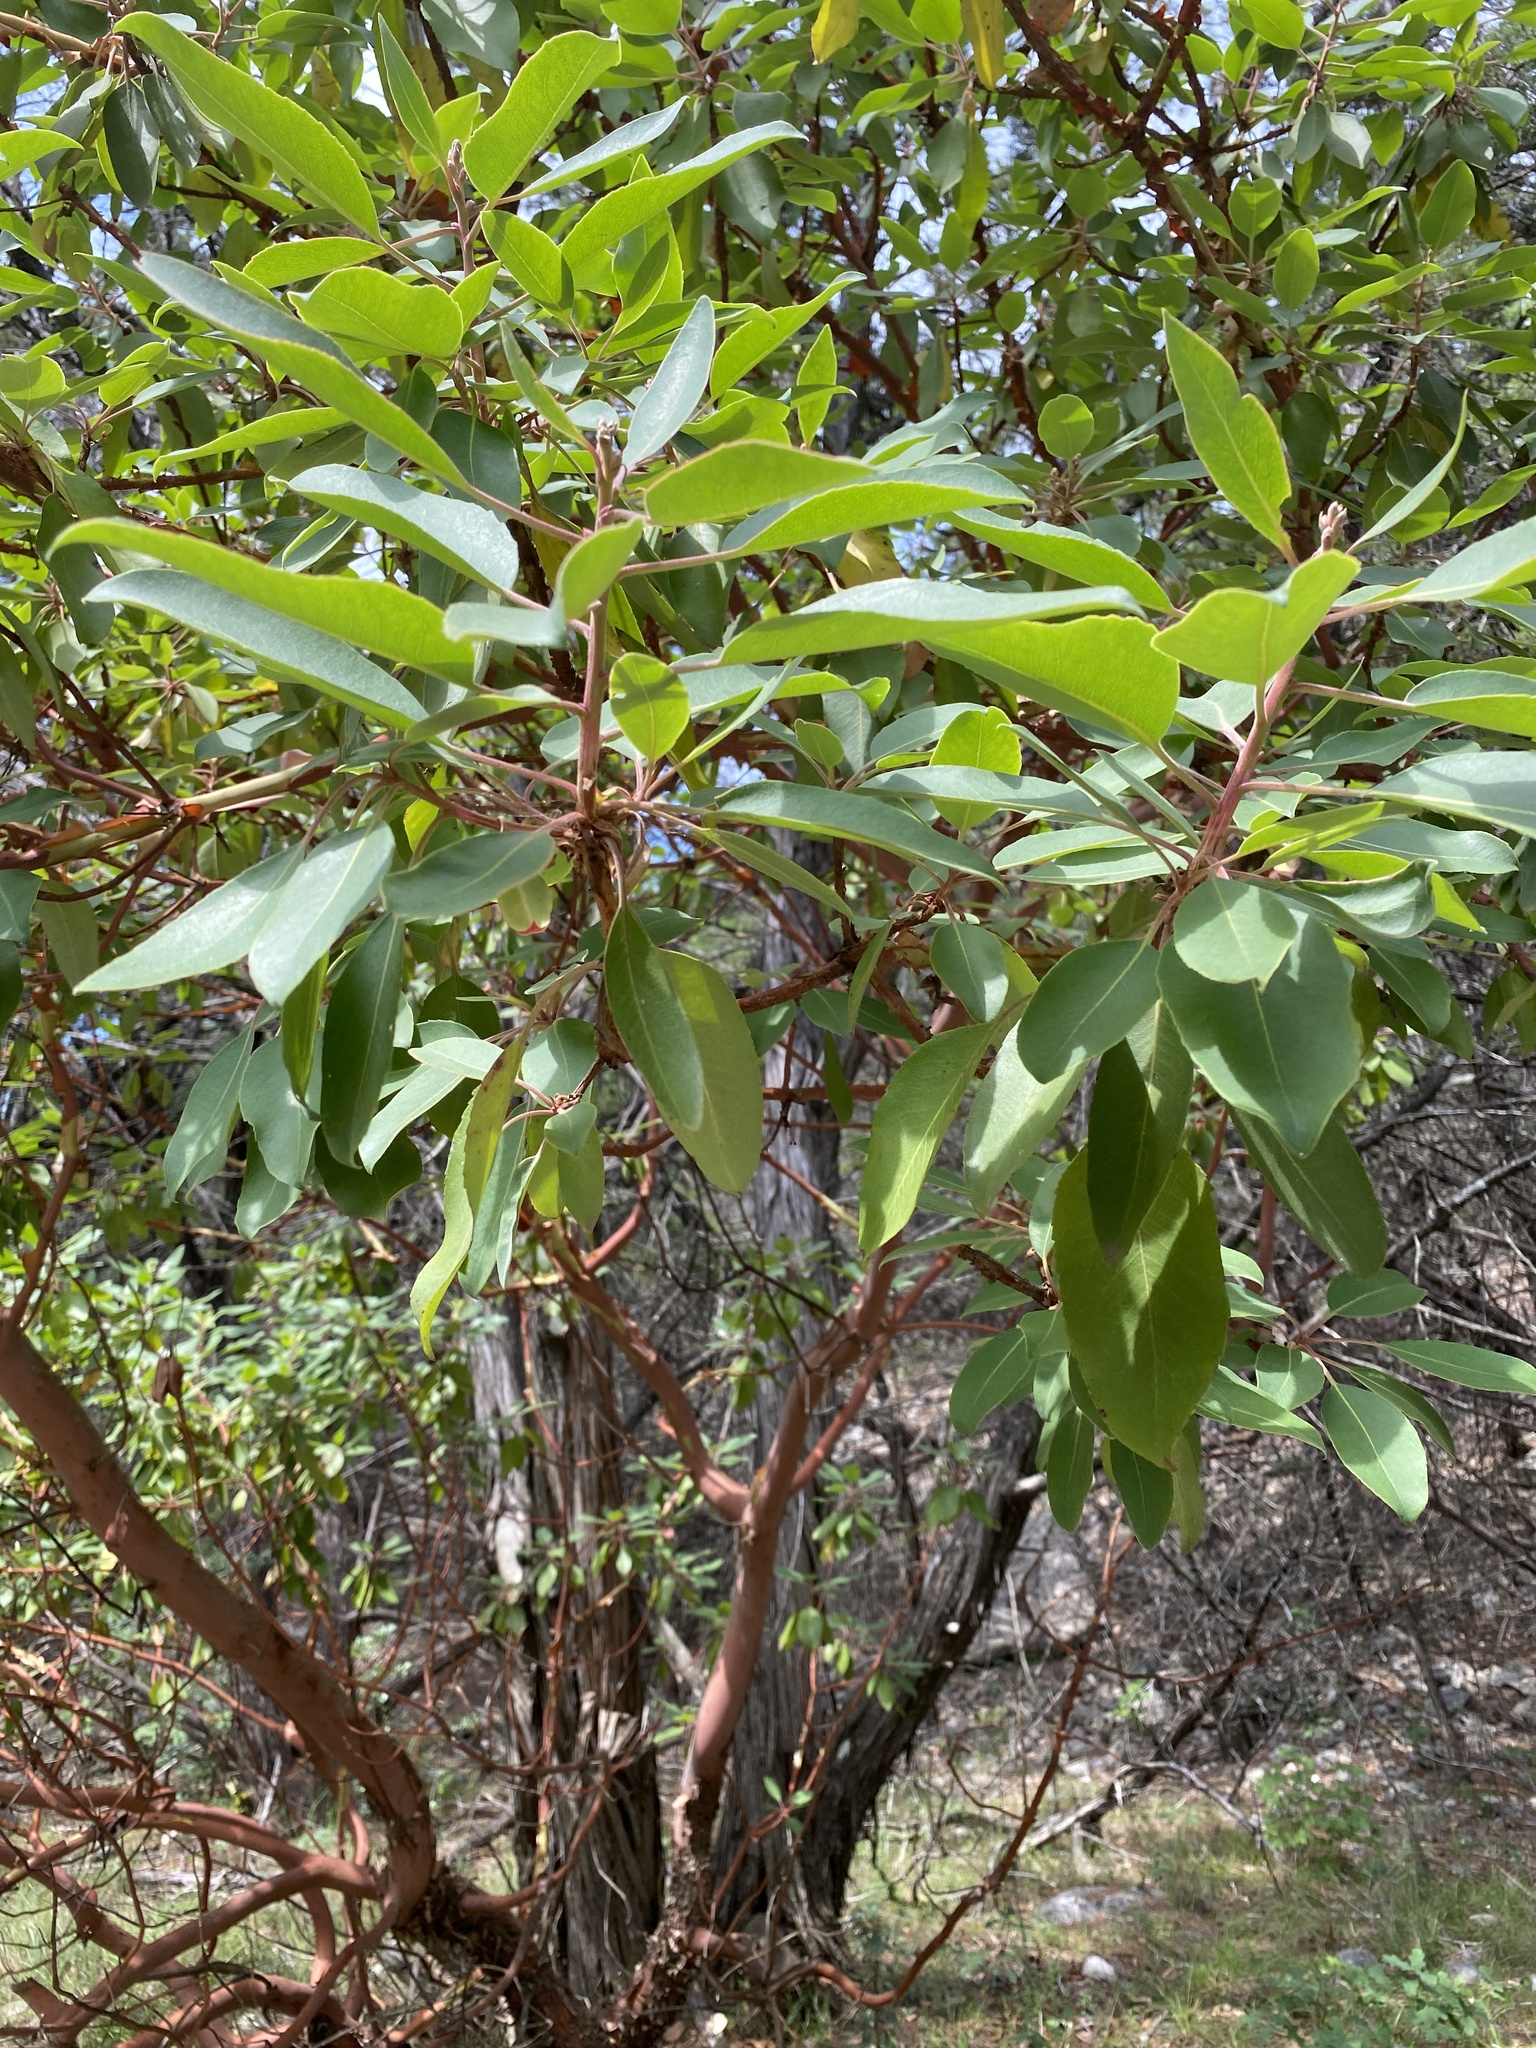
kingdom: Plantae
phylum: Tracheophyta
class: Magnoliopsida
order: Ericales
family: Ericaceae
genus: Arbutus
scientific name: Arbutus xalapensis
